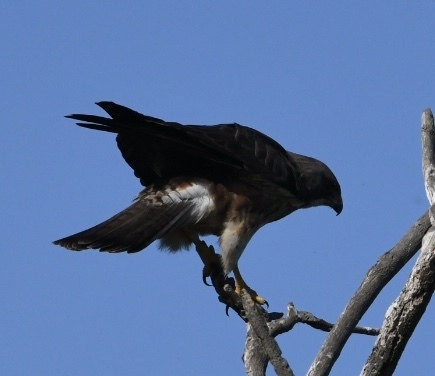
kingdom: Animalia
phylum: Chordata
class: Aves
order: Accipitriformes
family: Accipitridae
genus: Buteo
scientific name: Buteo swainsoni
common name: Swainson's hawk
